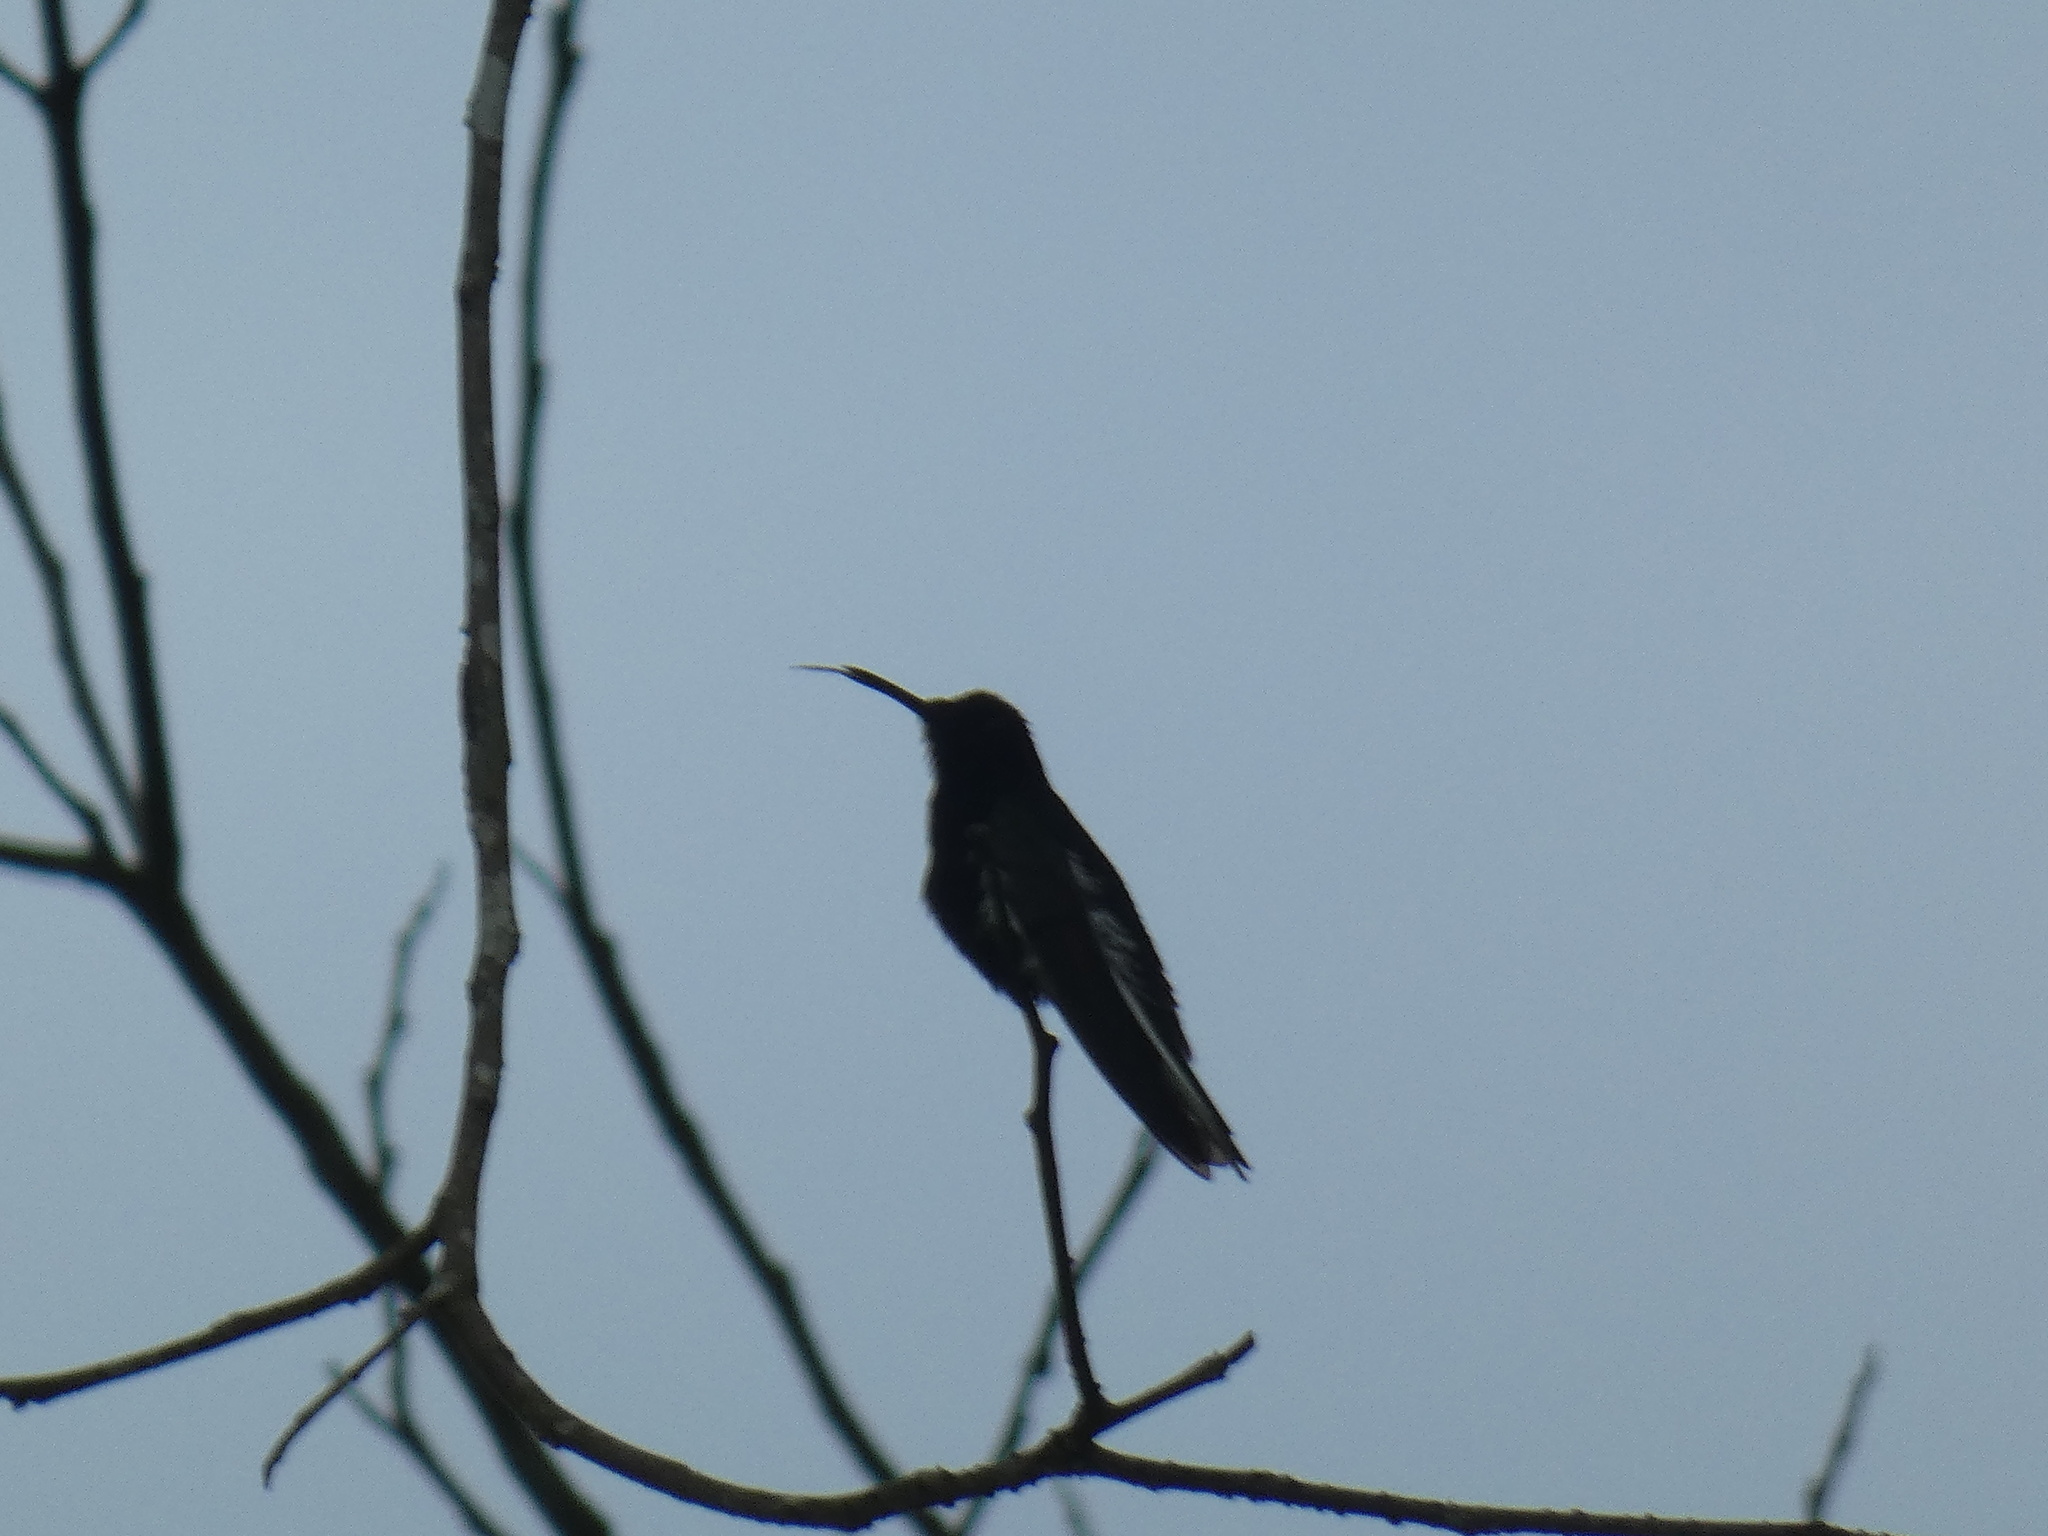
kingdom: Animalia
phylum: Chordata
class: Aves
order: Apodiformes
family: Trochilidae
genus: Florisuga
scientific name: Florisuga fusca
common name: Black jacobin
